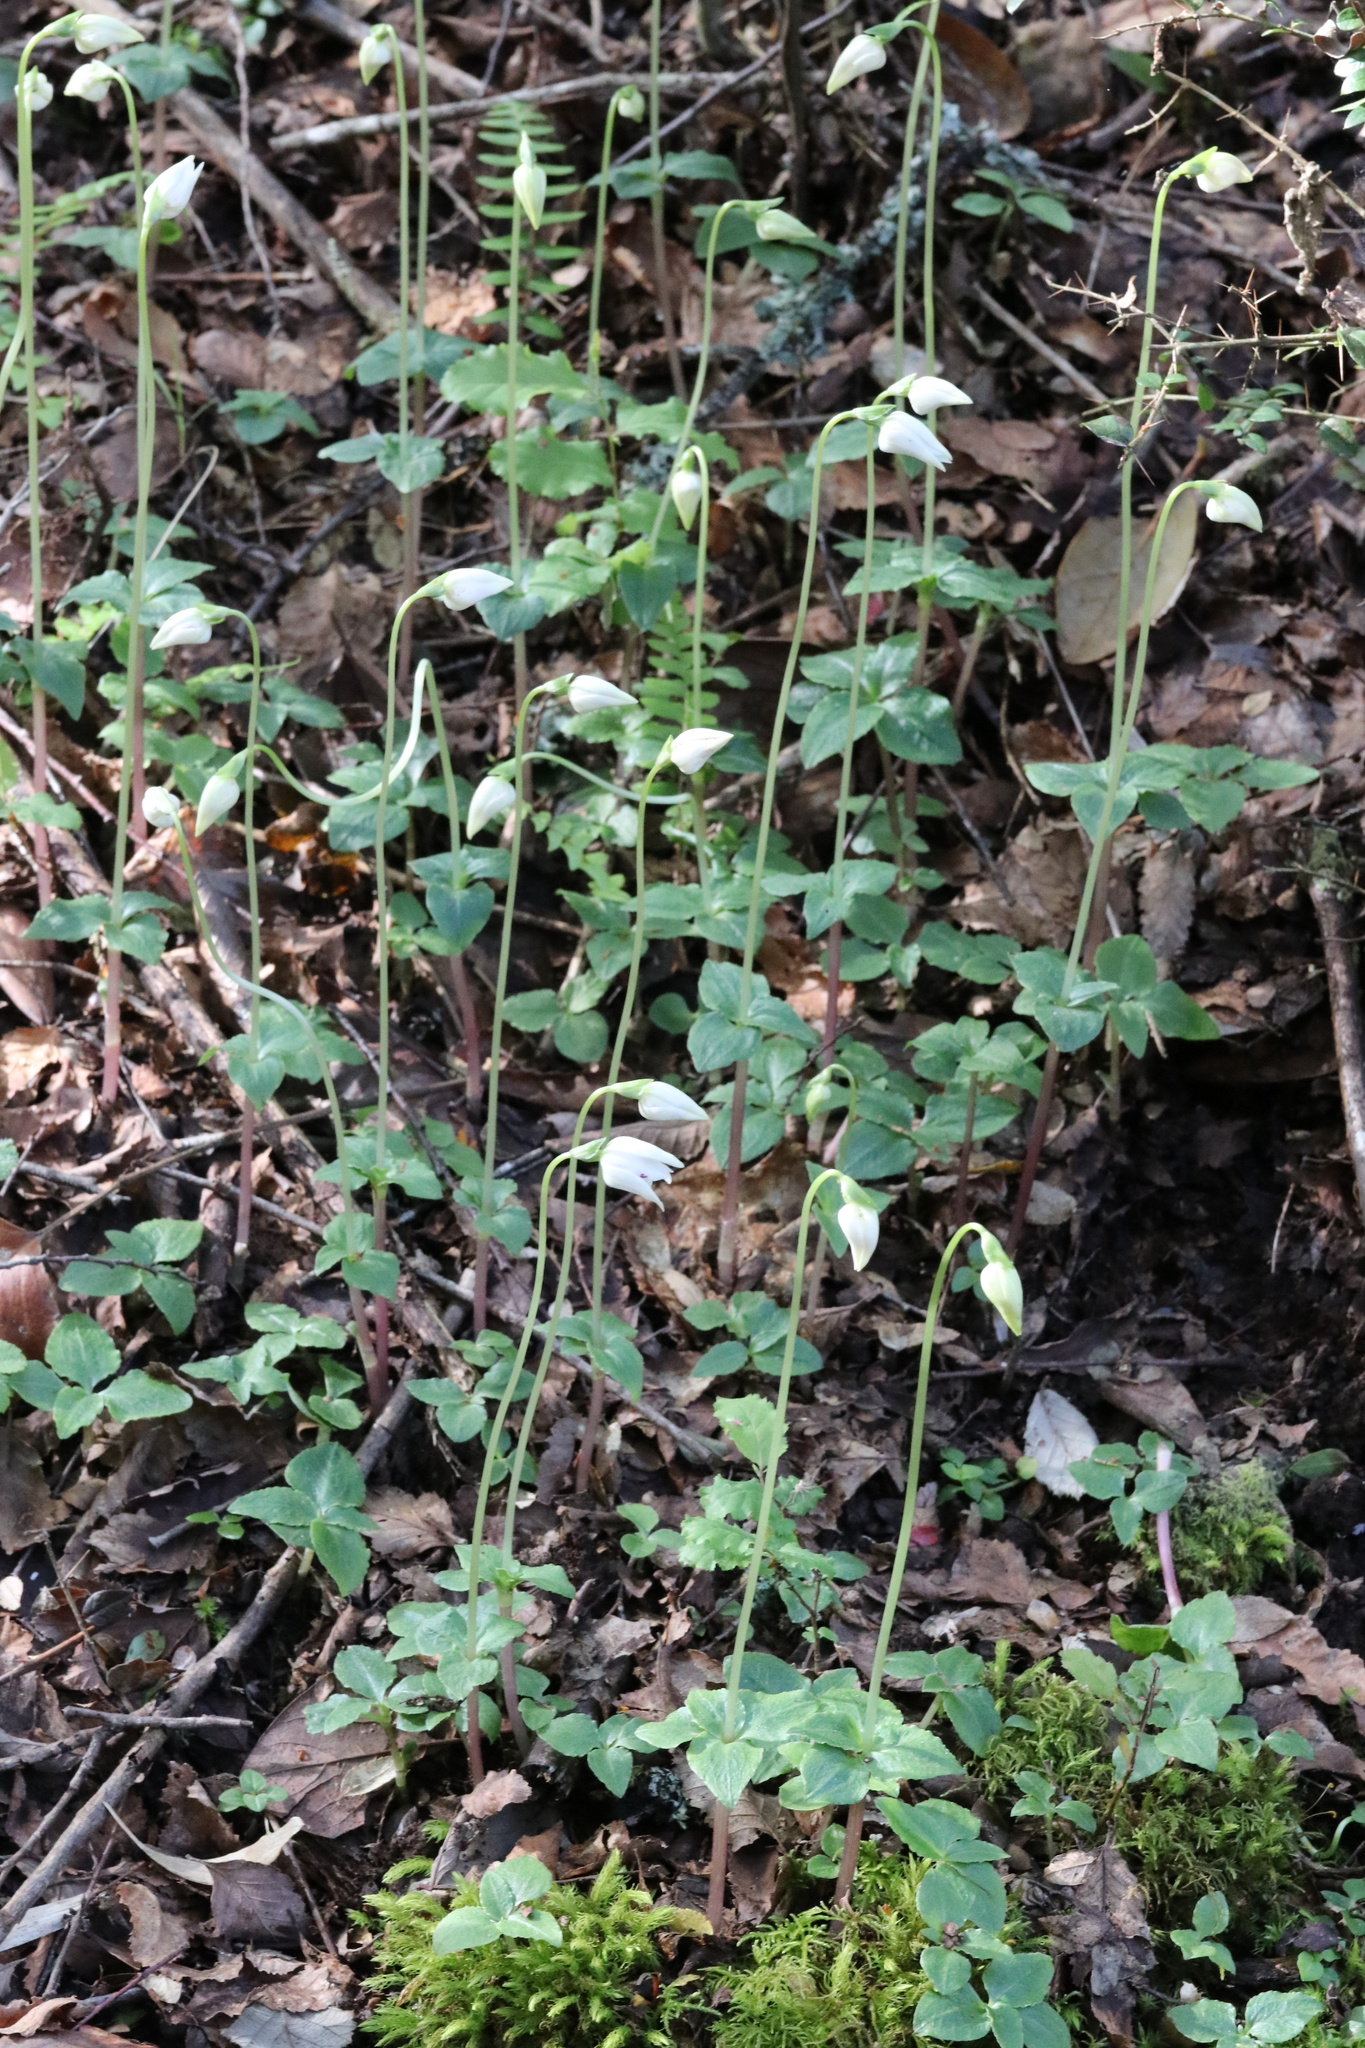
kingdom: Plantae
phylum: Tracheophyta
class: Liliopsida
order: Asparagales
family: Orchidaceae
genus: Codonorchis
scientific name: Codonorchis lessonii
